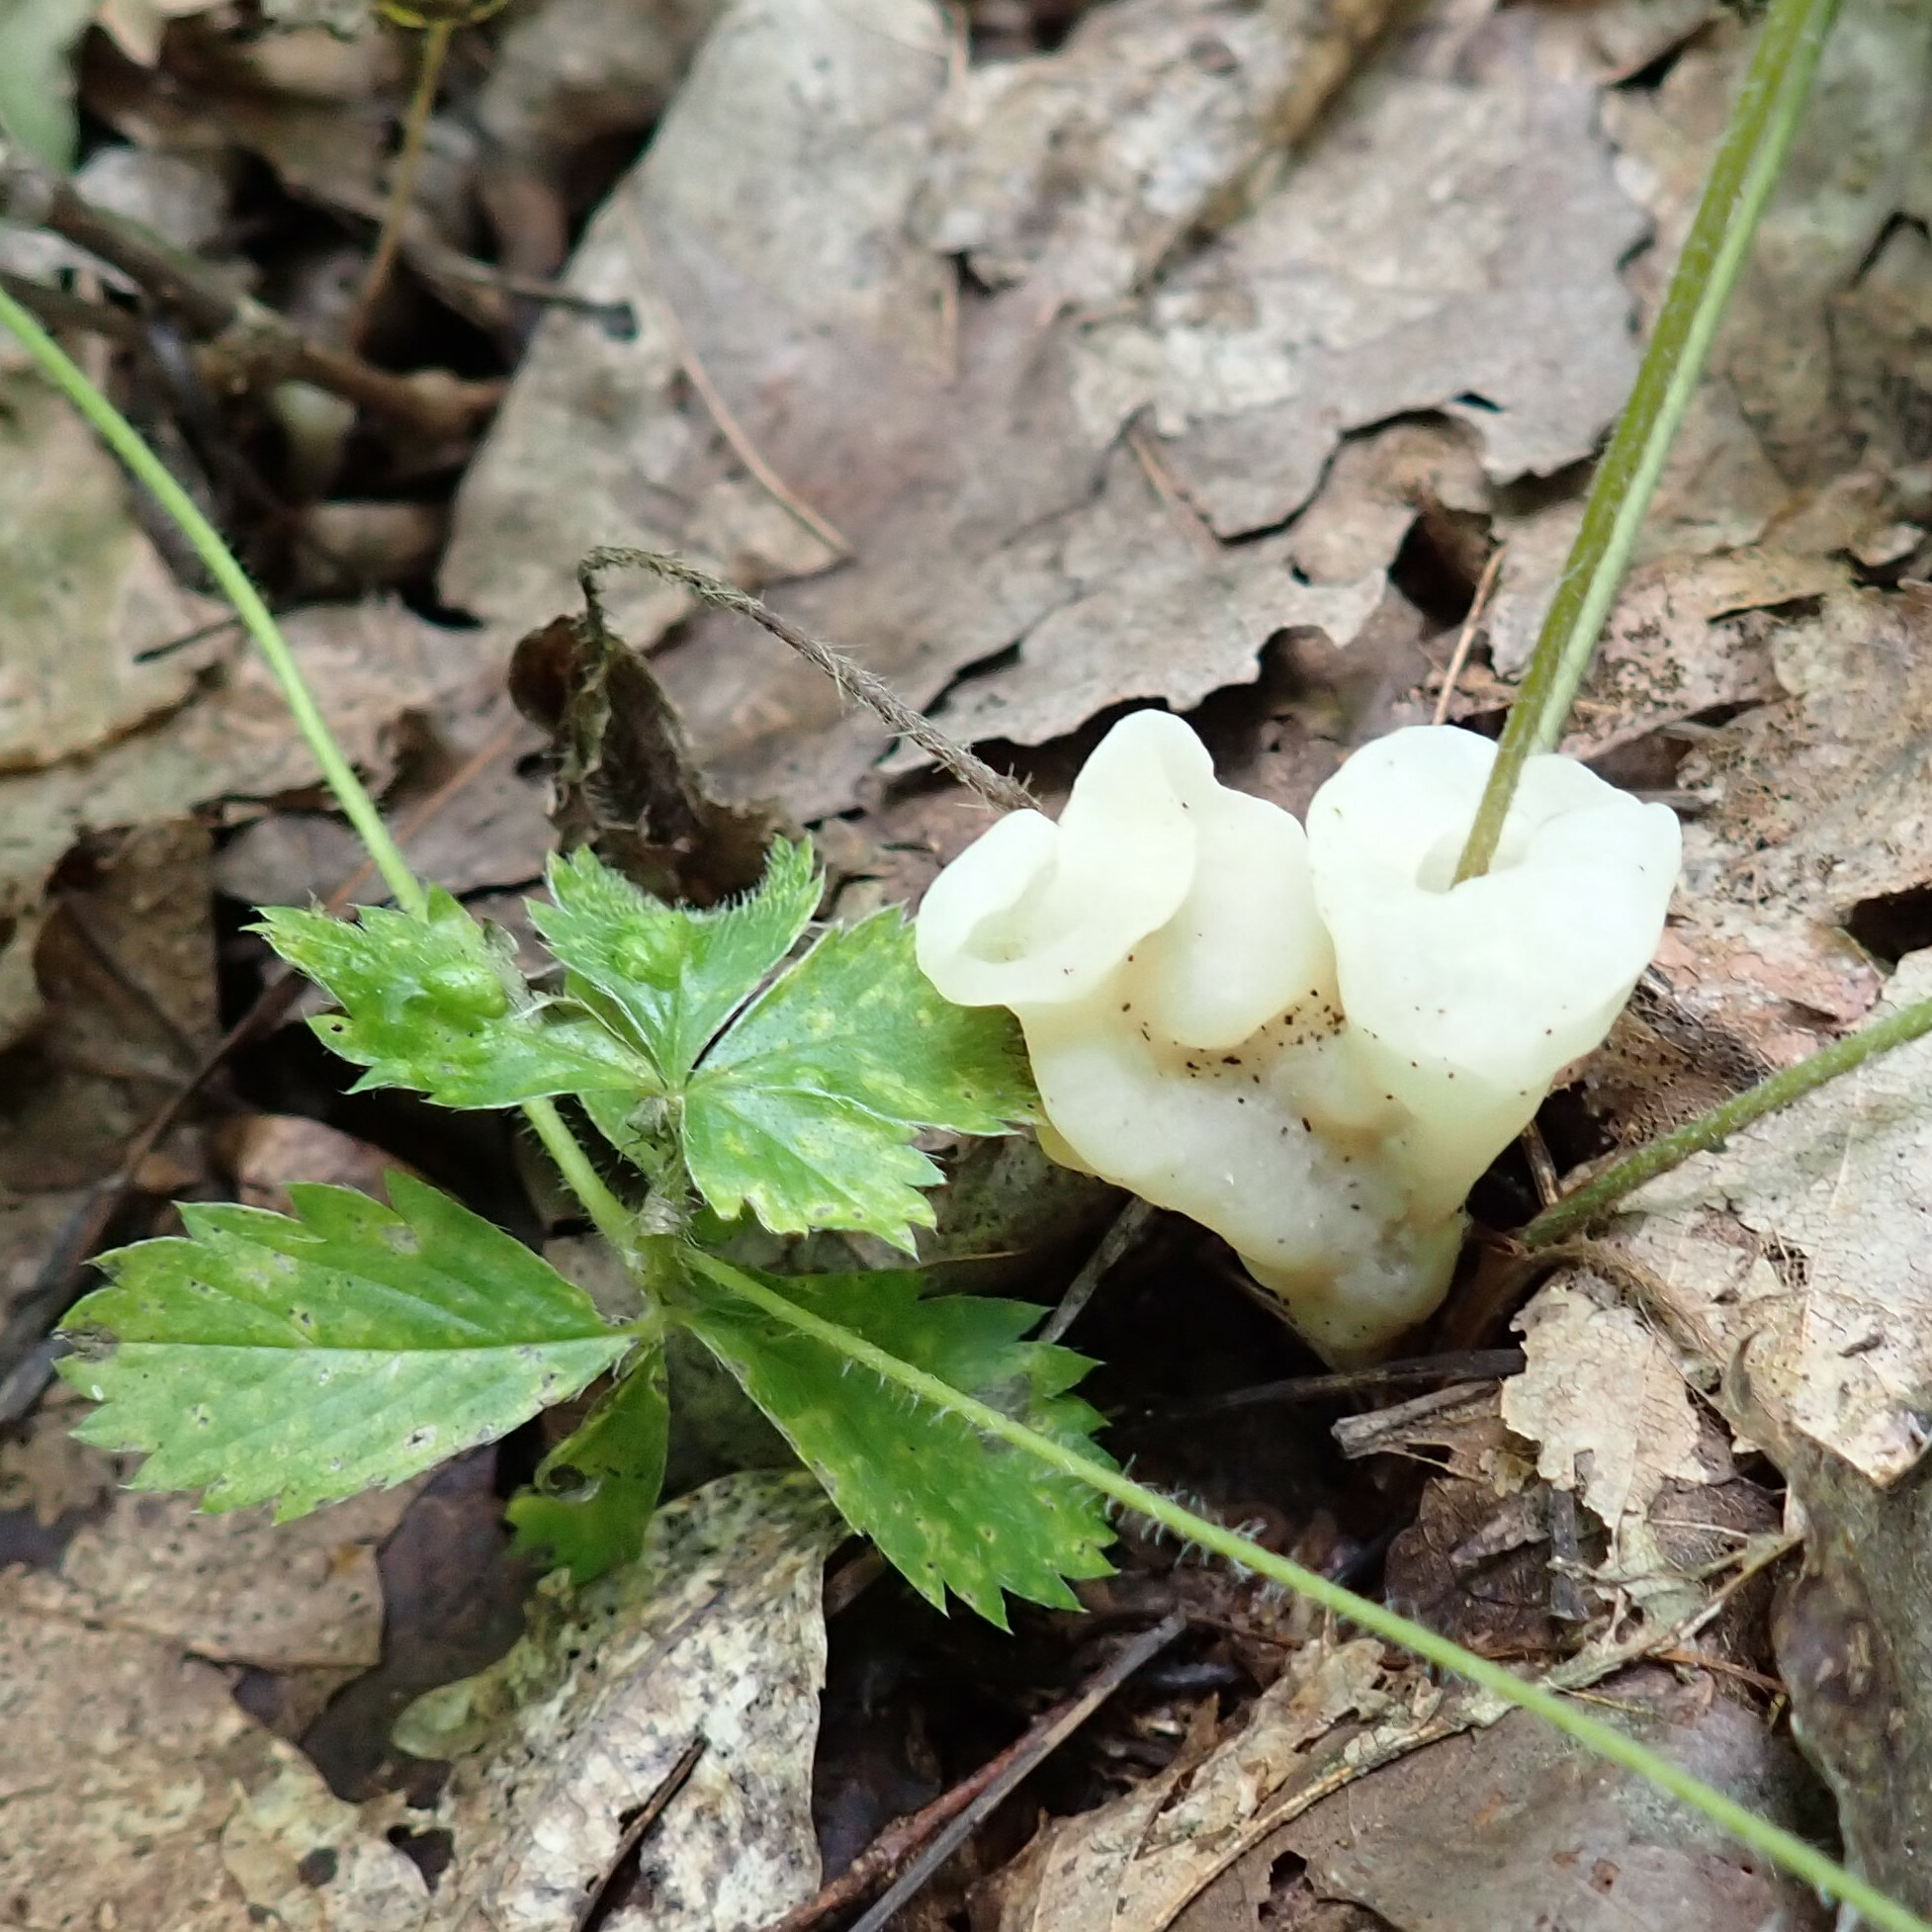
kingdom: Fungi
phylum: Basidiomycota
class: Agaricomycetes
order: Sebacinales
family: Sebacinaceae
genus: Helvellosebacina
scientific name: Helvellosebacina concrescens
